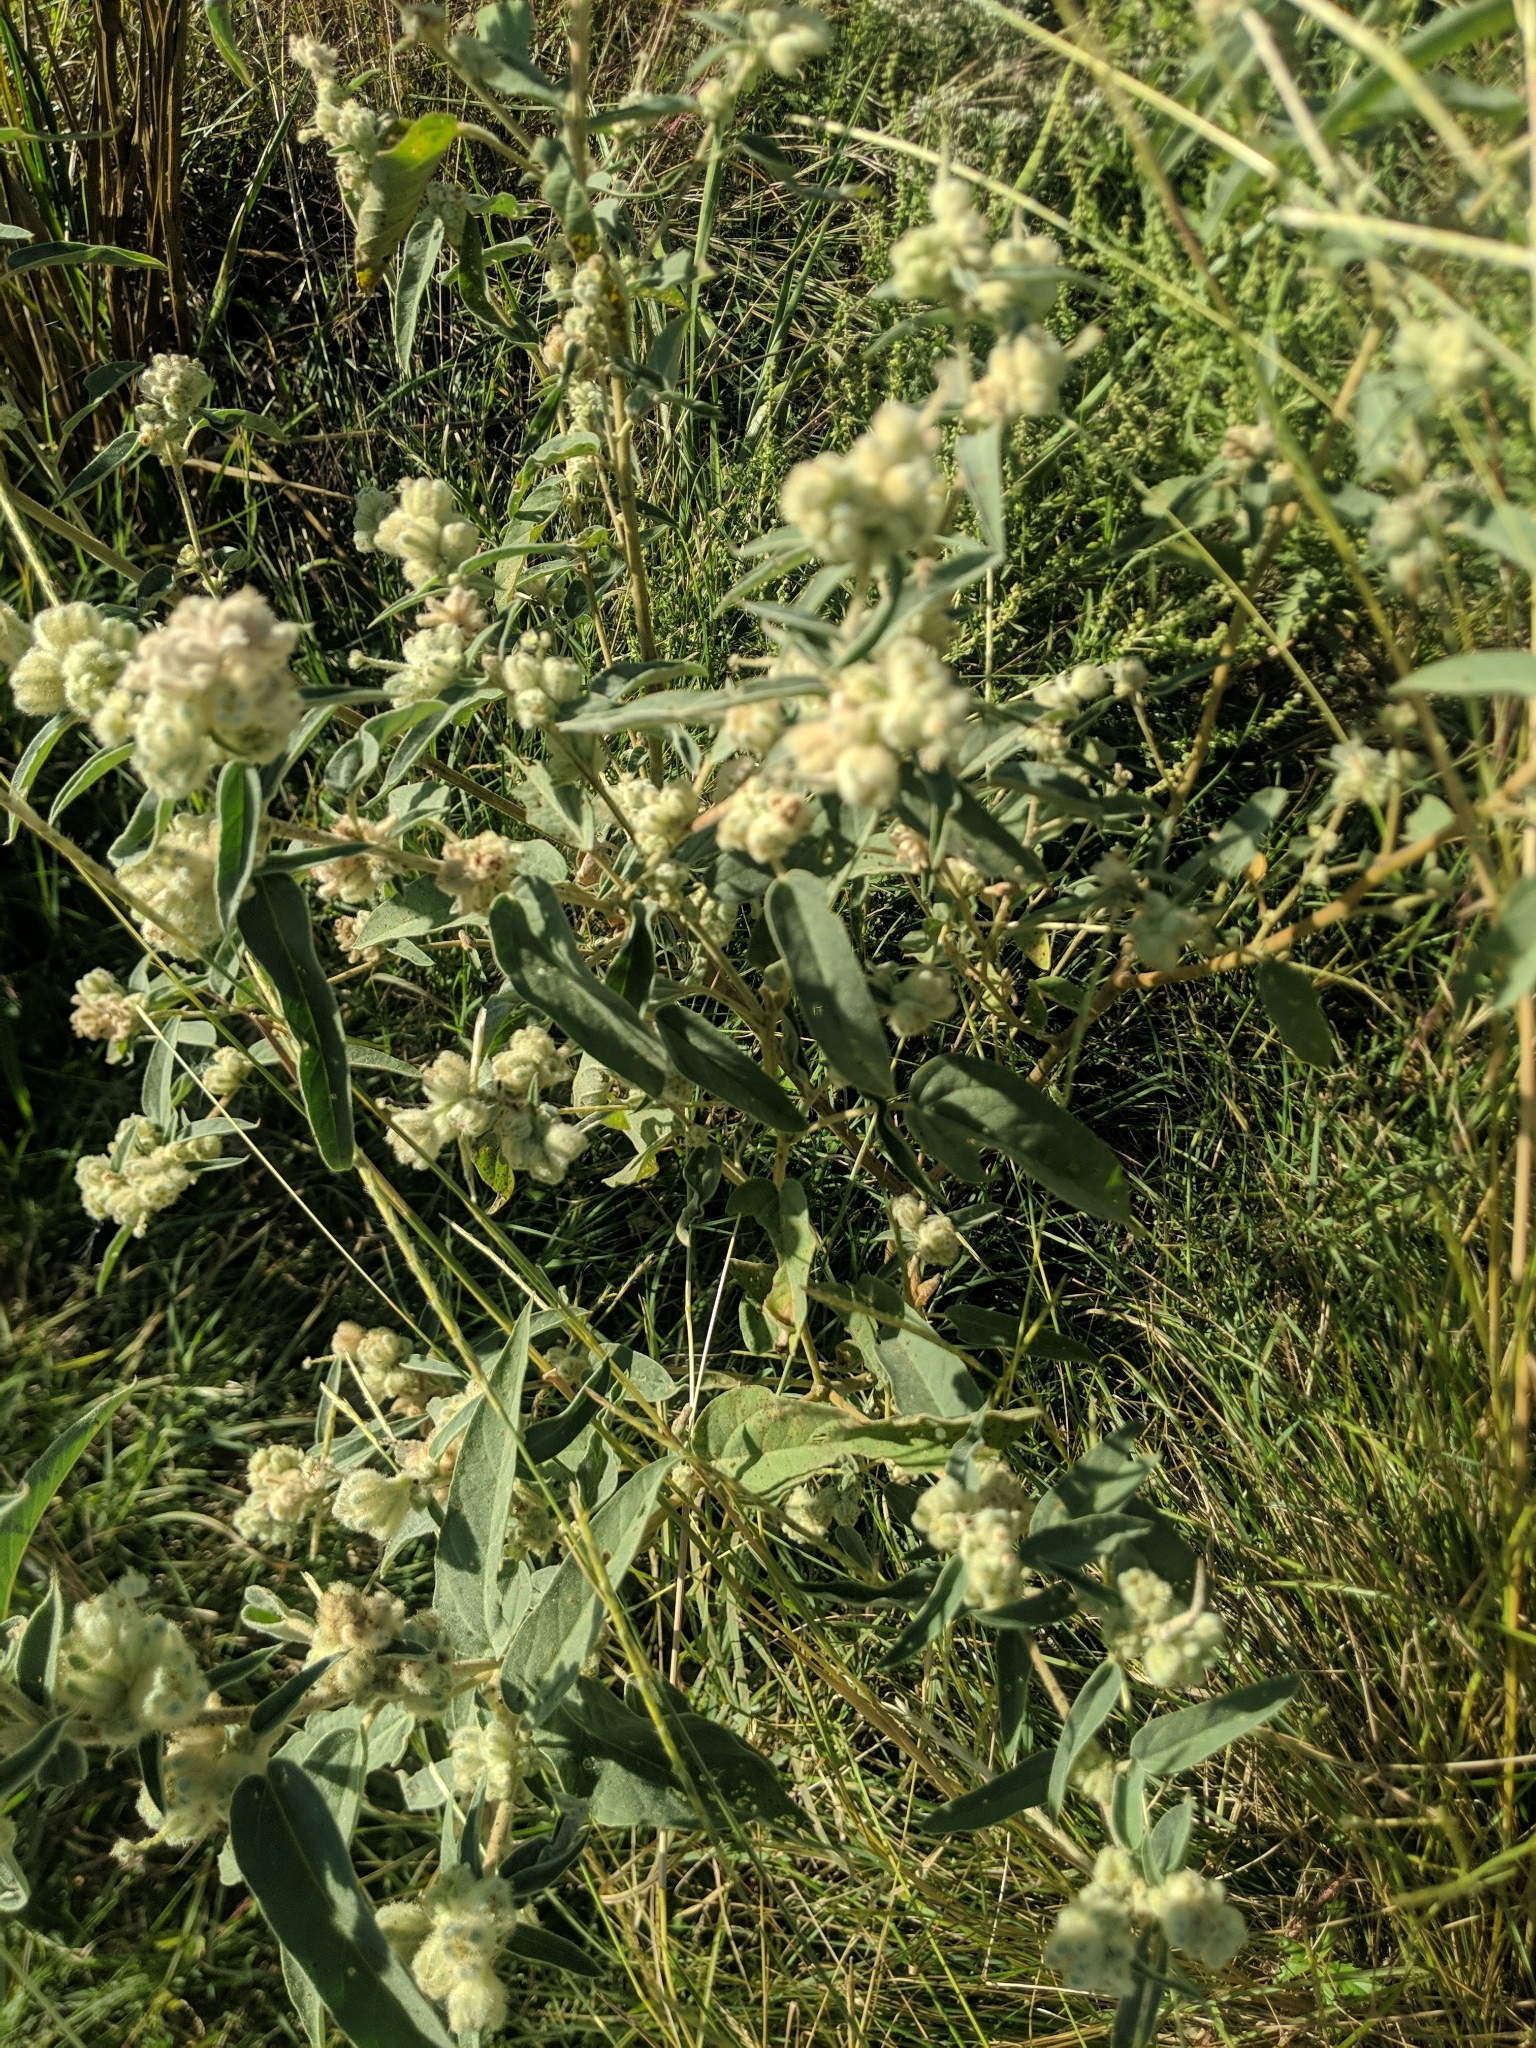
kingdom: Plantae
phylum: Tracheophyta
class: Magnoliopsida
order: Malpighiales
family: Euphorbiaceae
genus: Croton
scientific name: Croton lindheimeri
